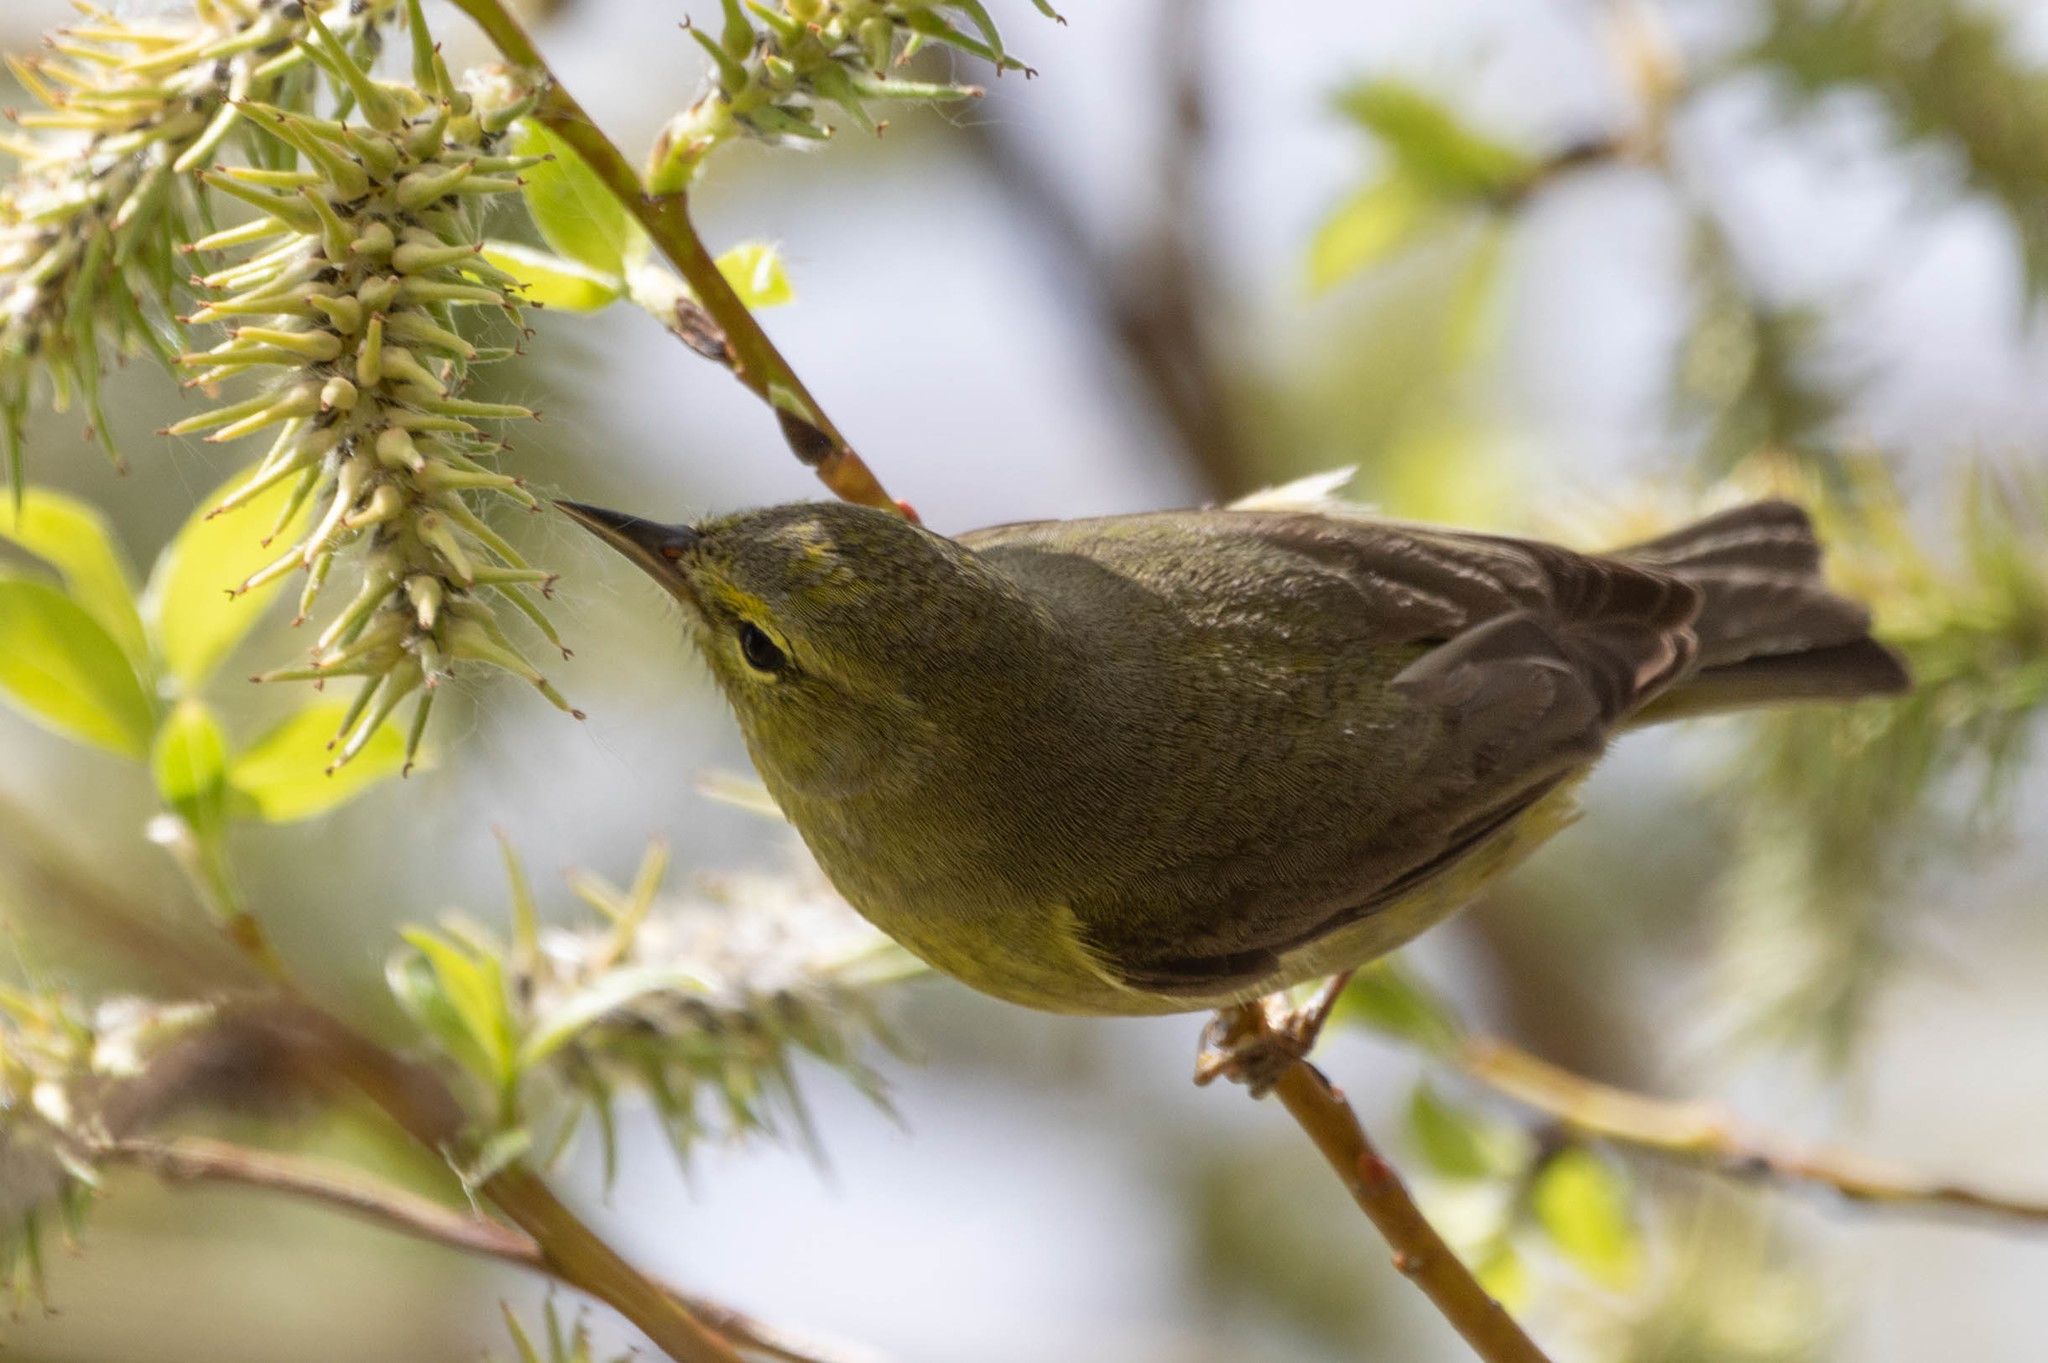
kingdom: Animalia
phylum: Chordata
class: Aves
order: Passeriformes
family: Parulidae
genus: Leiothlypis
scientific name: Leiothlypis celata
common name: Orange-crowned warbler
